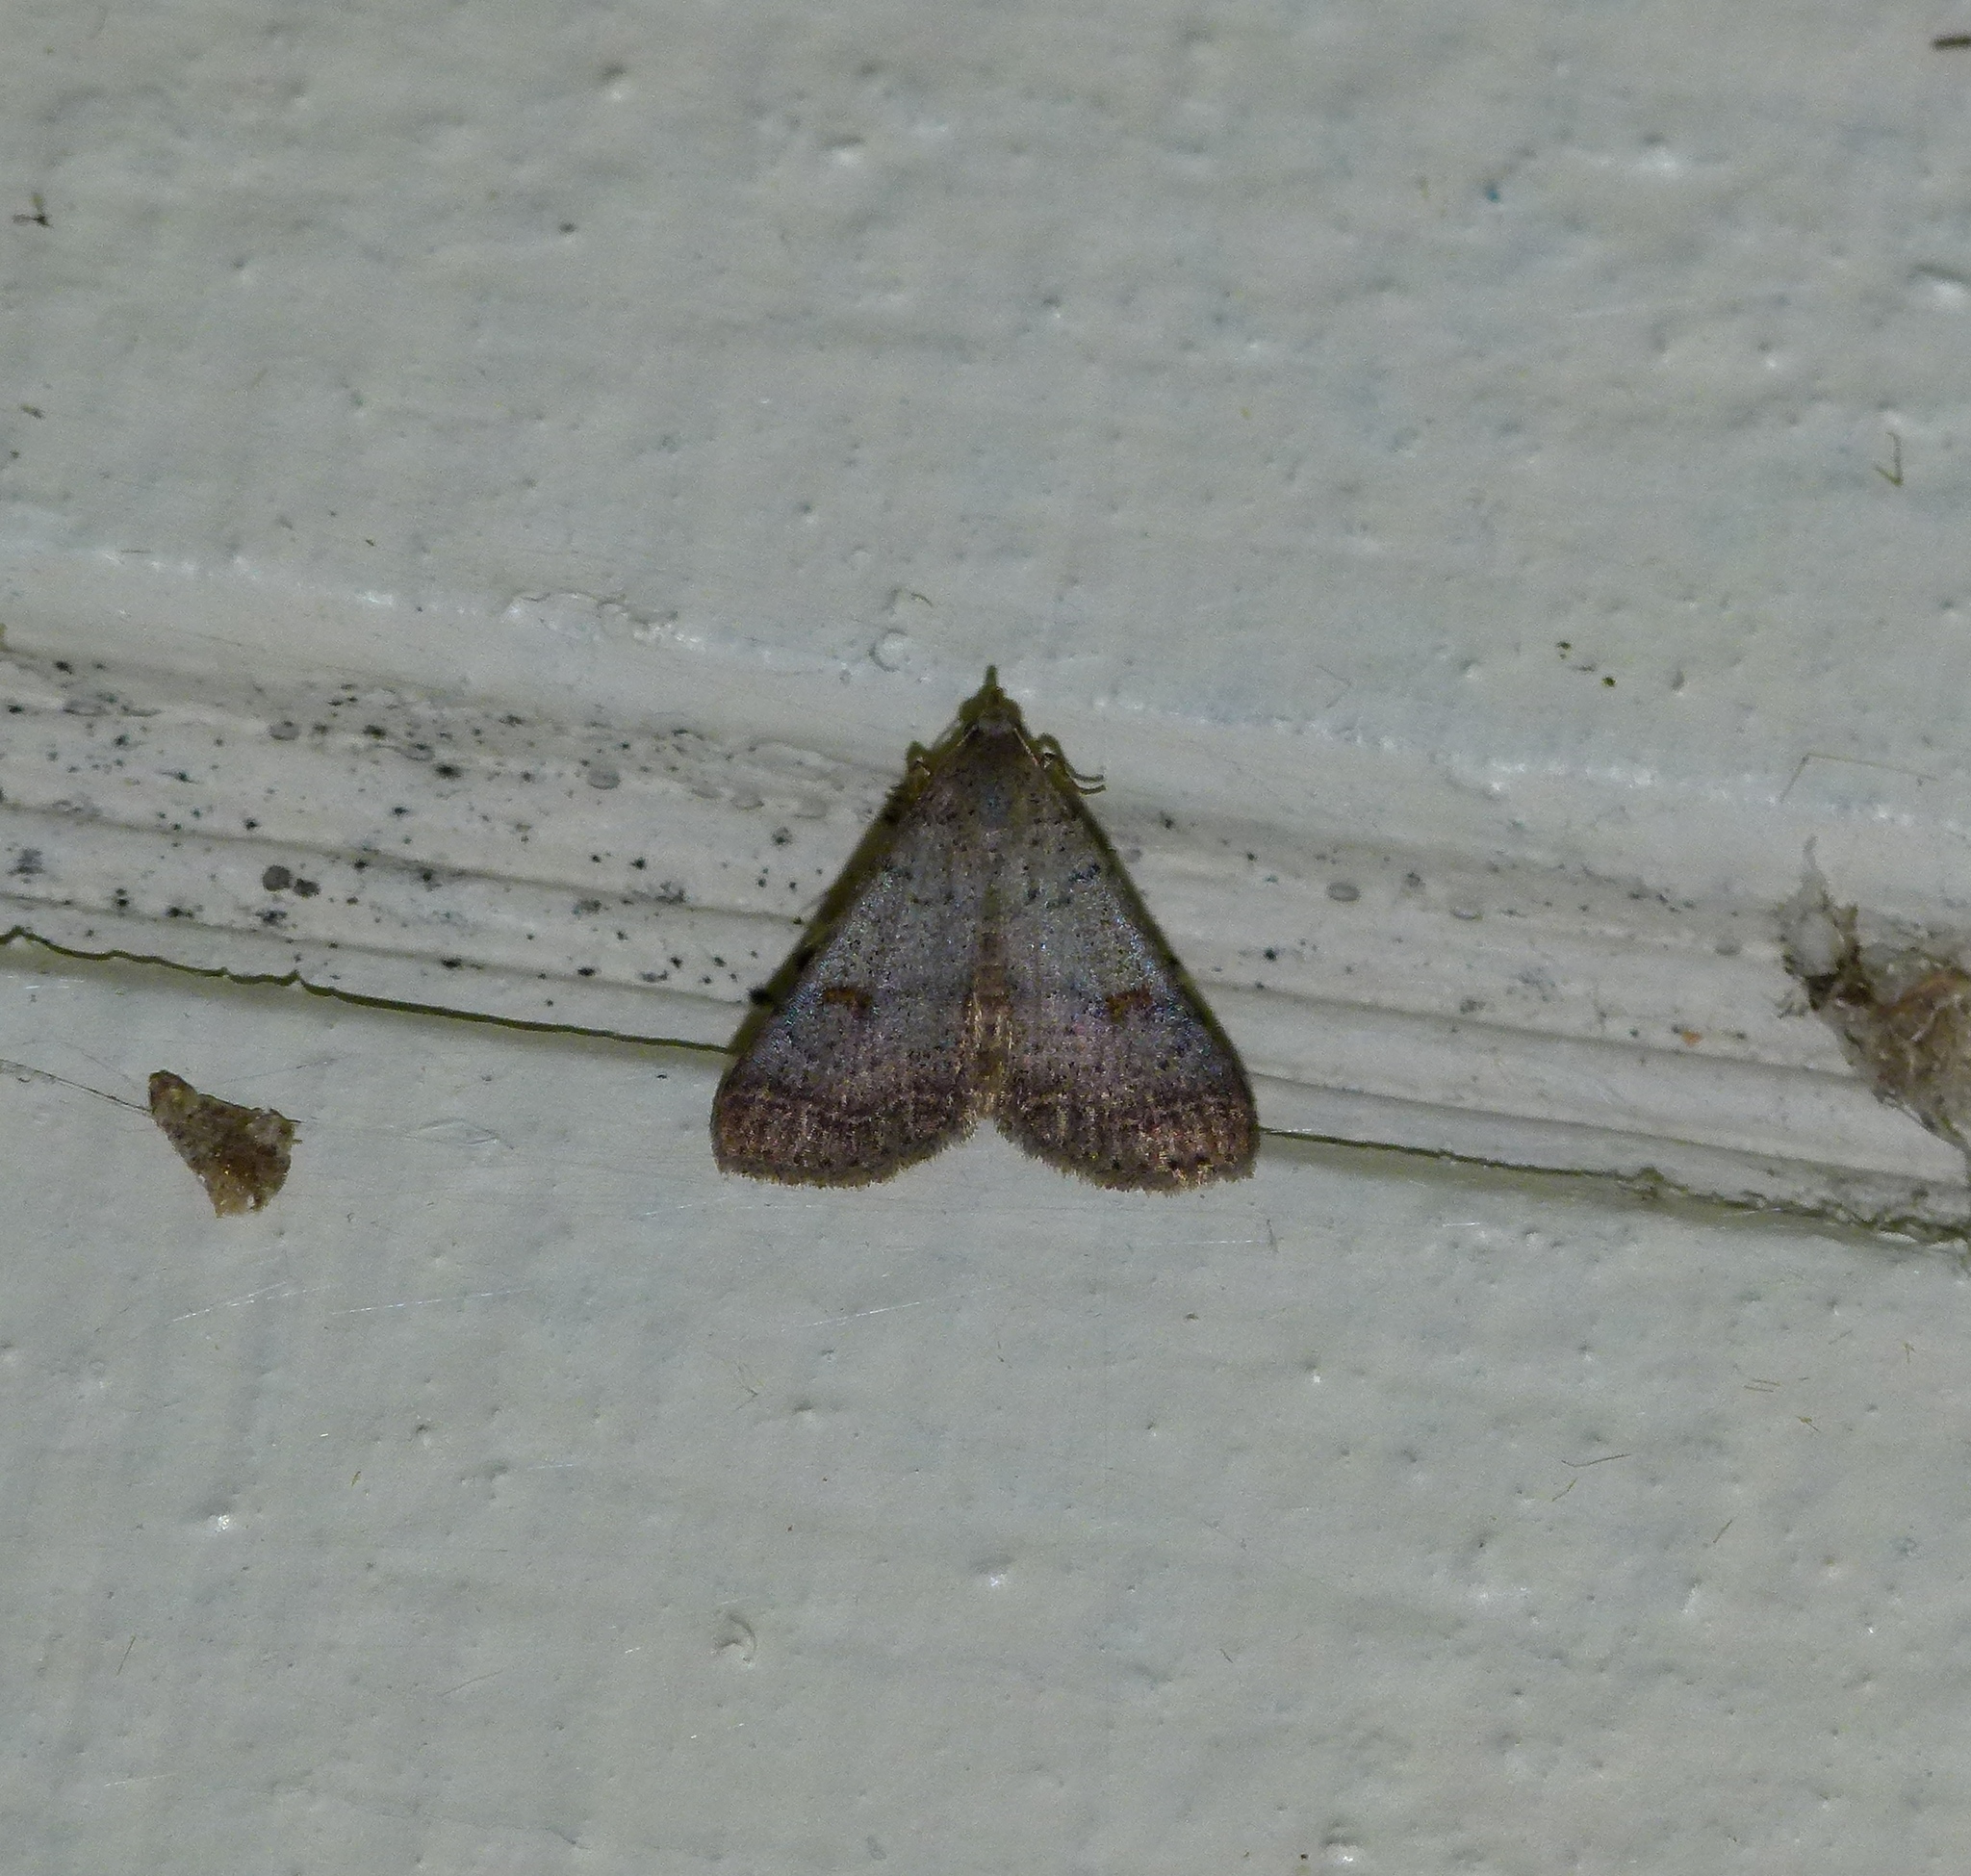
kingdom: Animalia
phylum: Arthropoda
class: Insecta
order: Lepidoptera
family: Erebidae
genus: Bleptina
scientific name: Bleptina caradrinalis
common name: Bent-winged owlet
